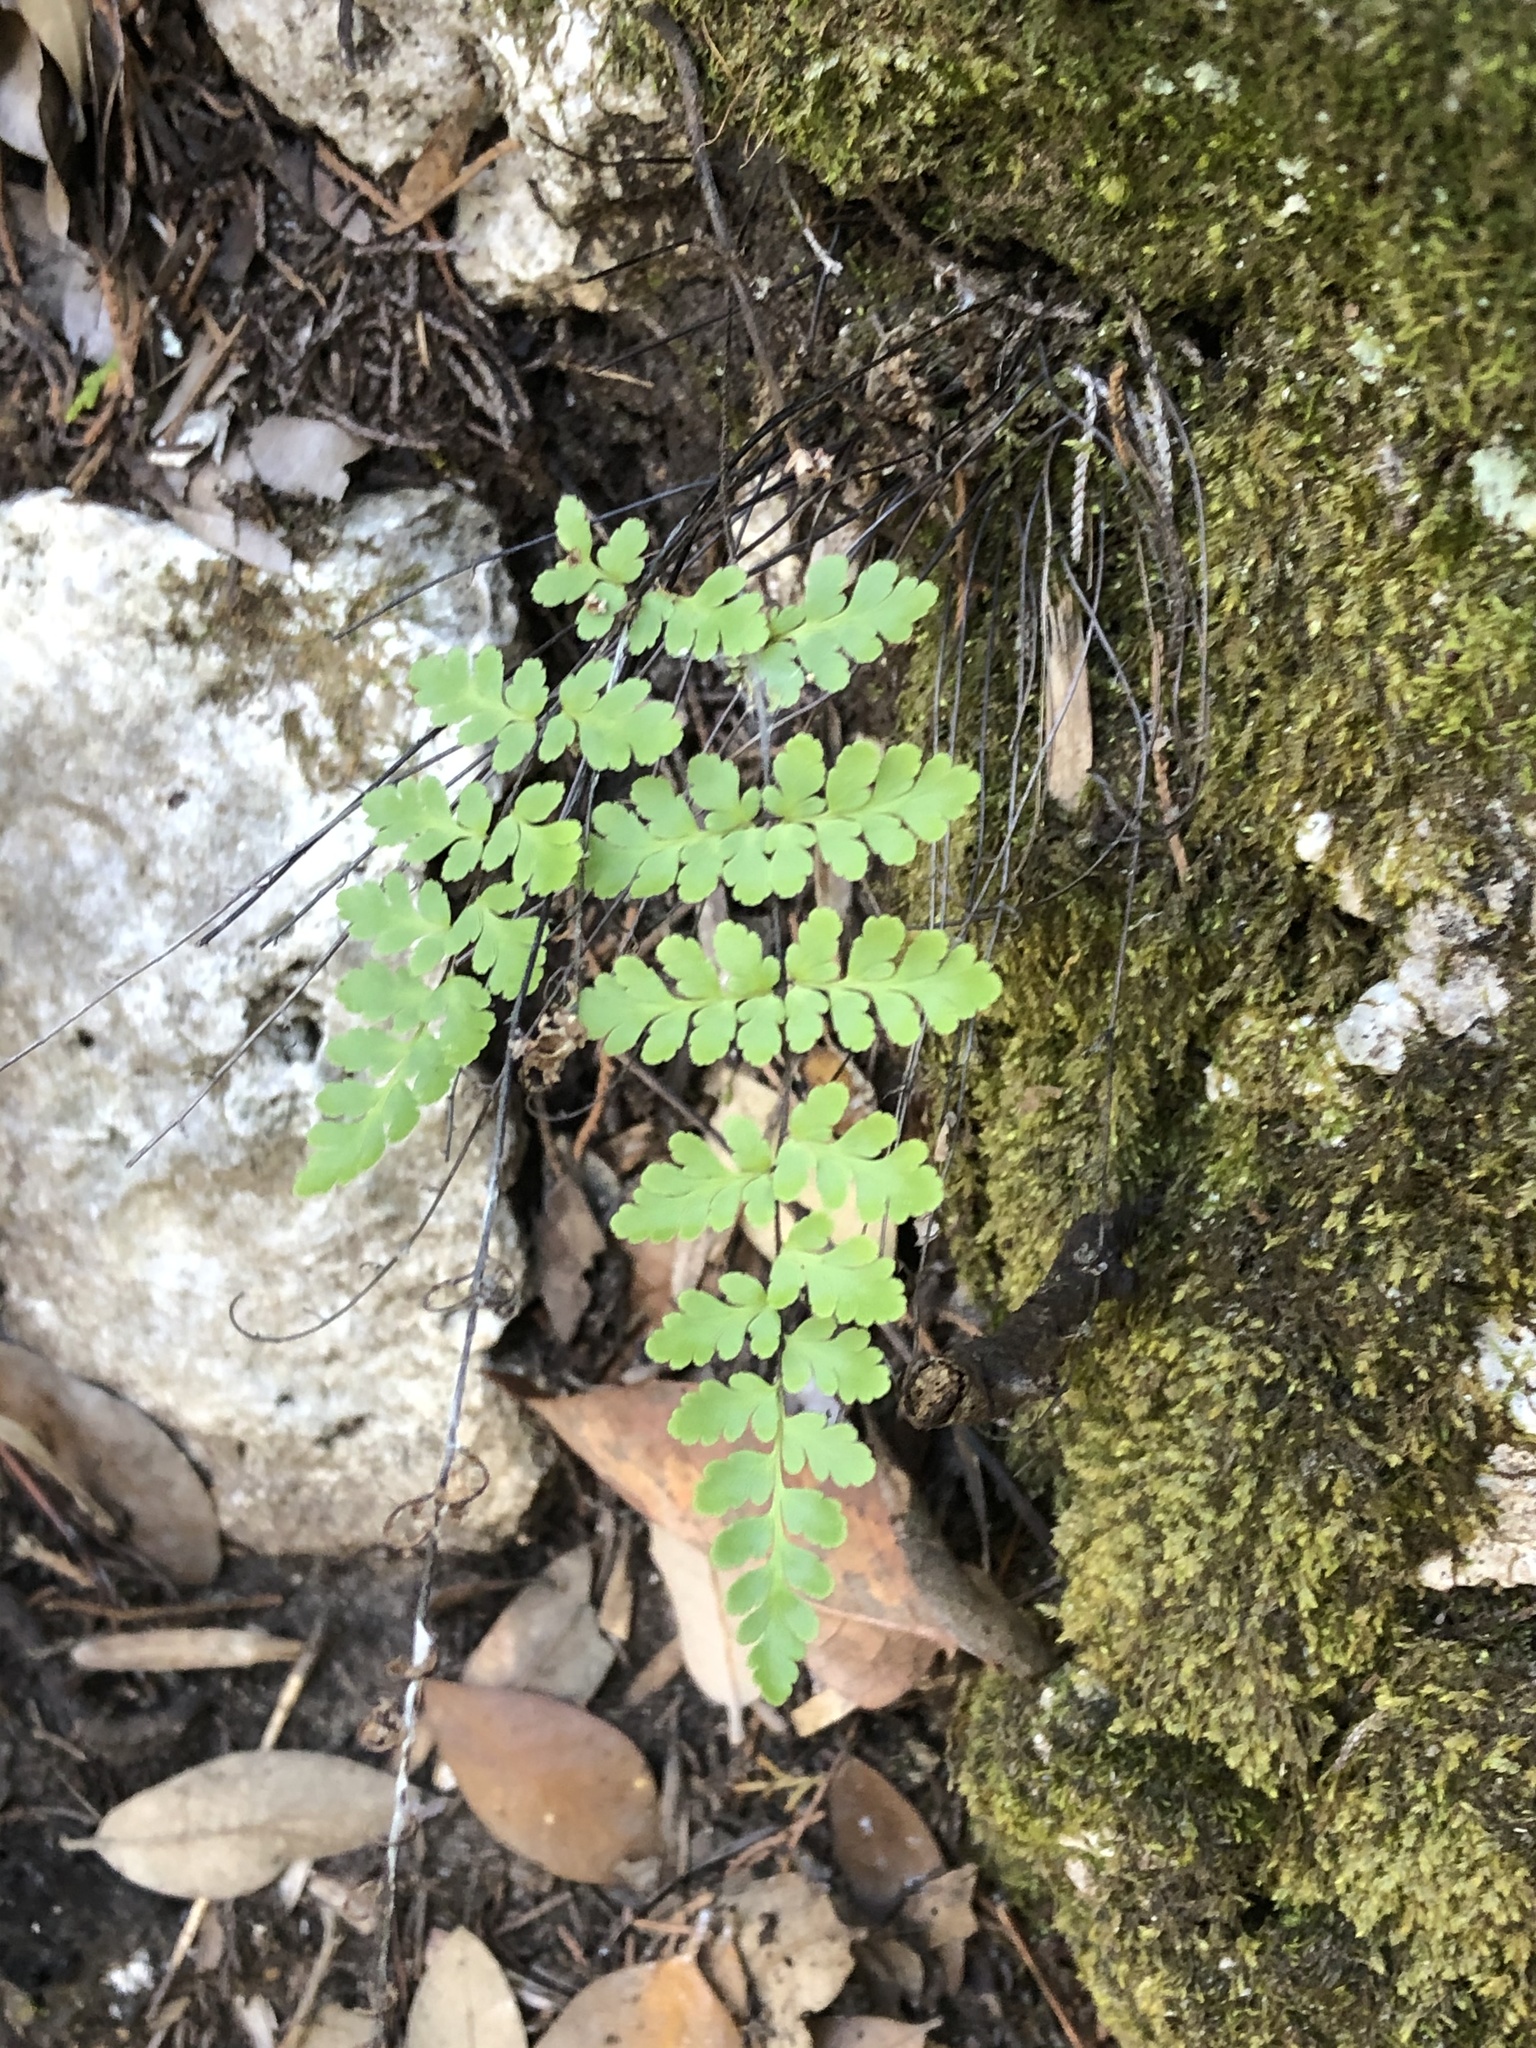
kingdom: Plantae
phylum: Tracheophyta
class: Polypodiopsida
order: Polypodiales
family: Pteridaceae
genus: Myriopteris
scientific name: Myriopteris alabamensis
